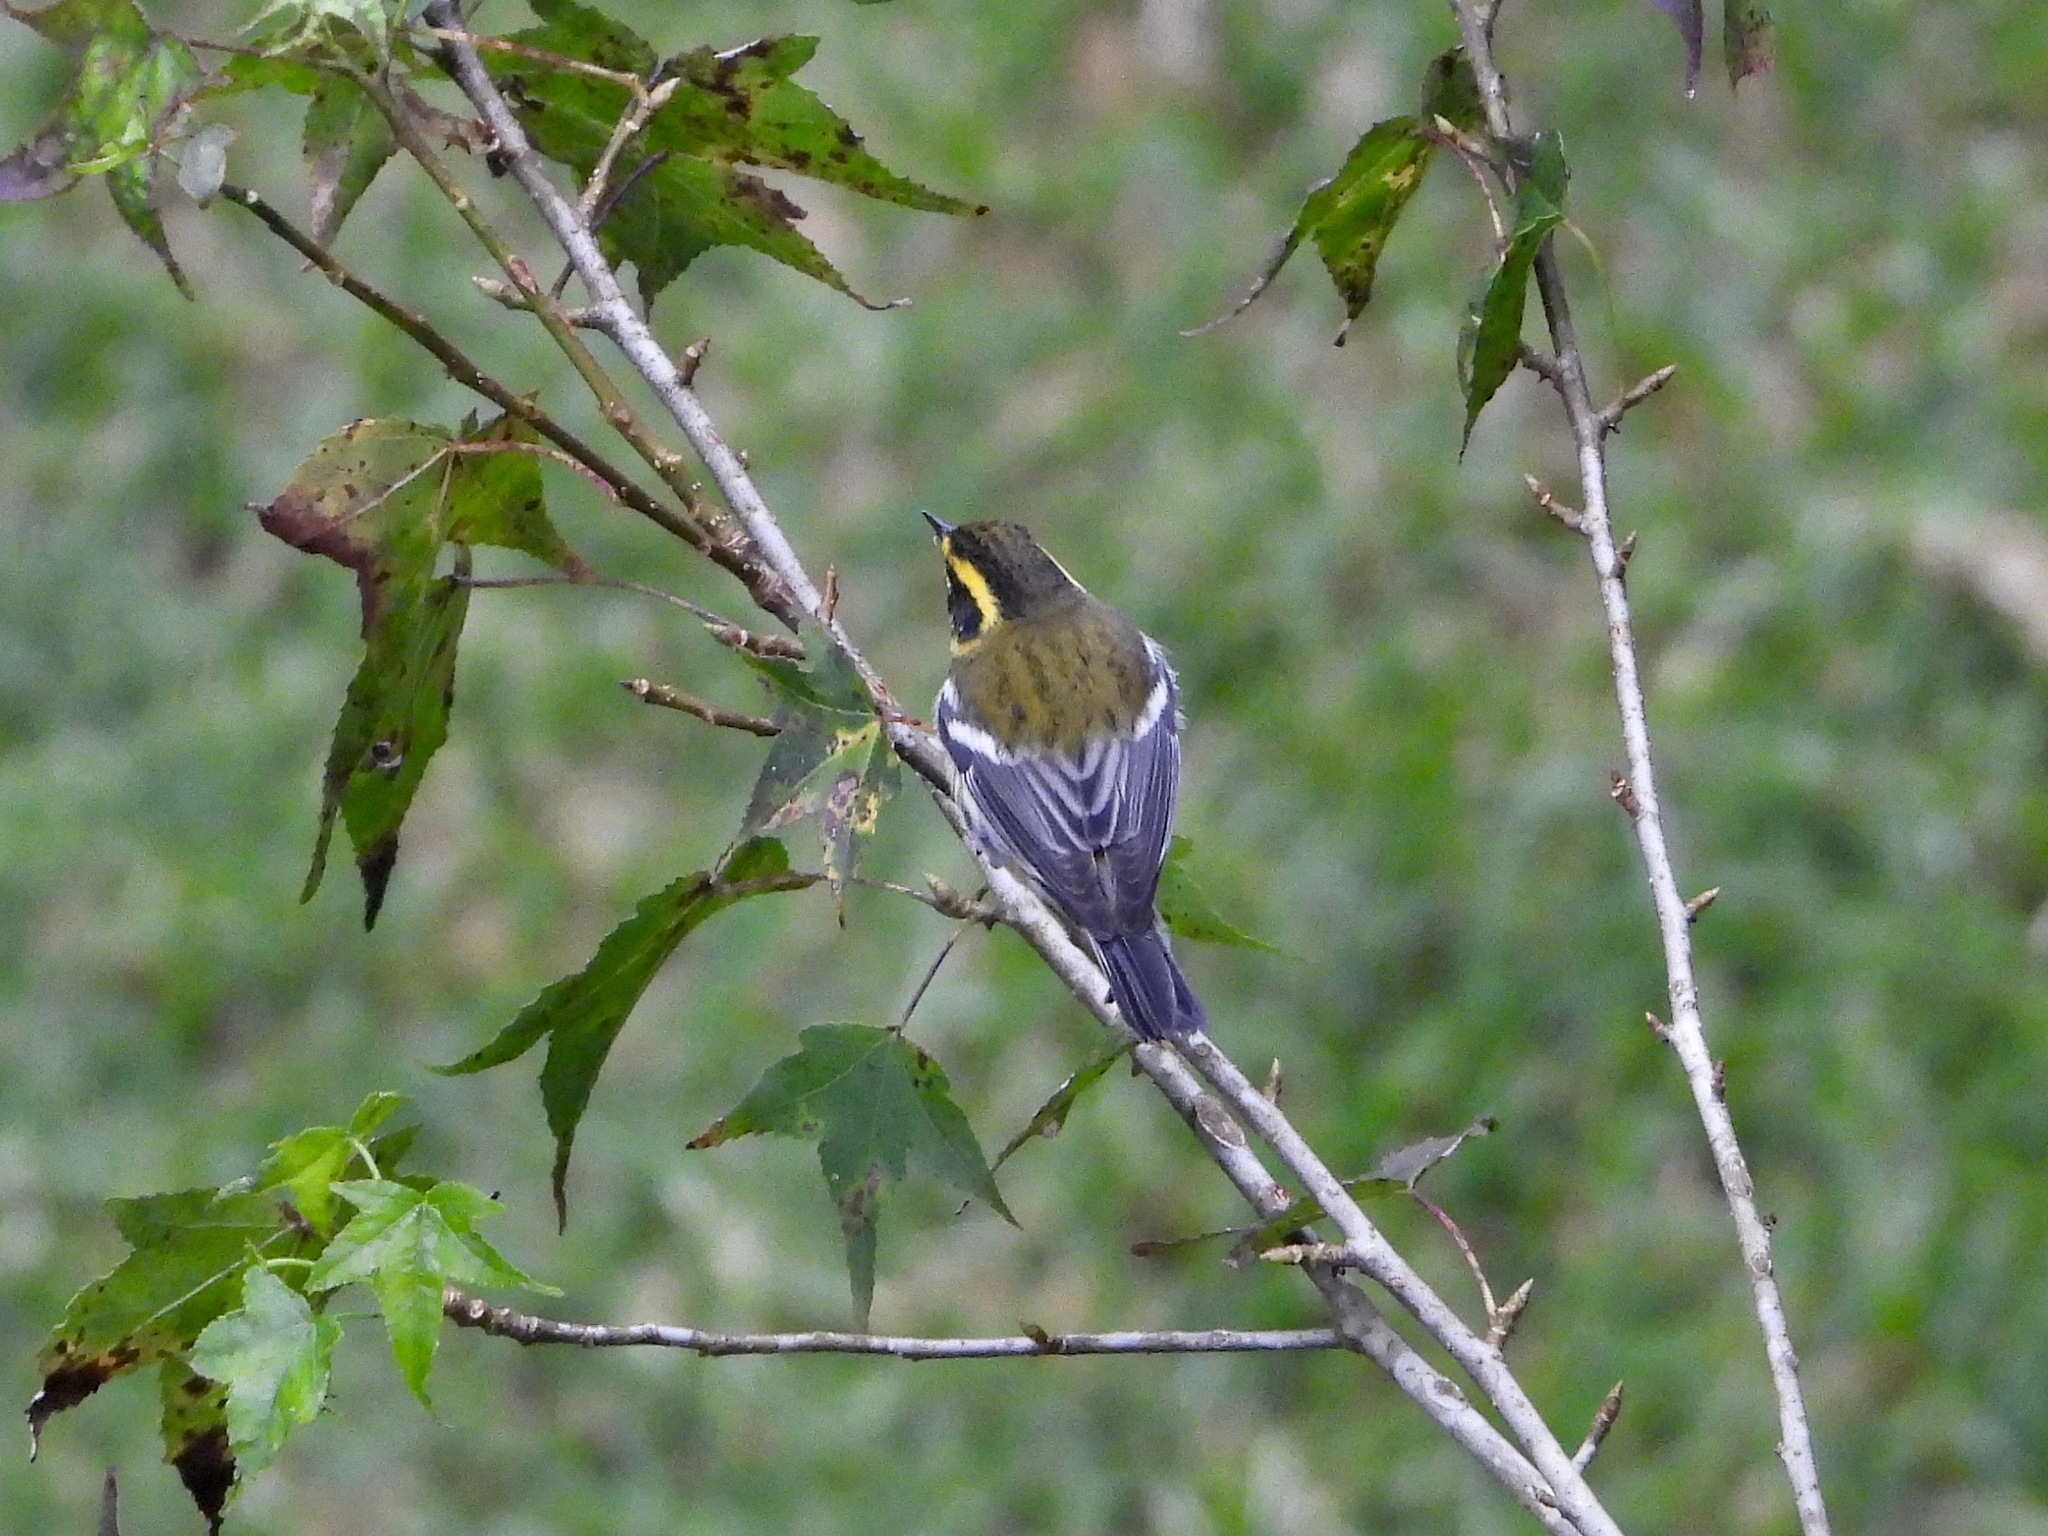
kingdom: Animalia
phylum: Chordata
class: Aves
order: Passeriformes
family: Parulidae
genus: Setophaga
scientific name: Setophaga townsendi
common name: Townsend's warbler
